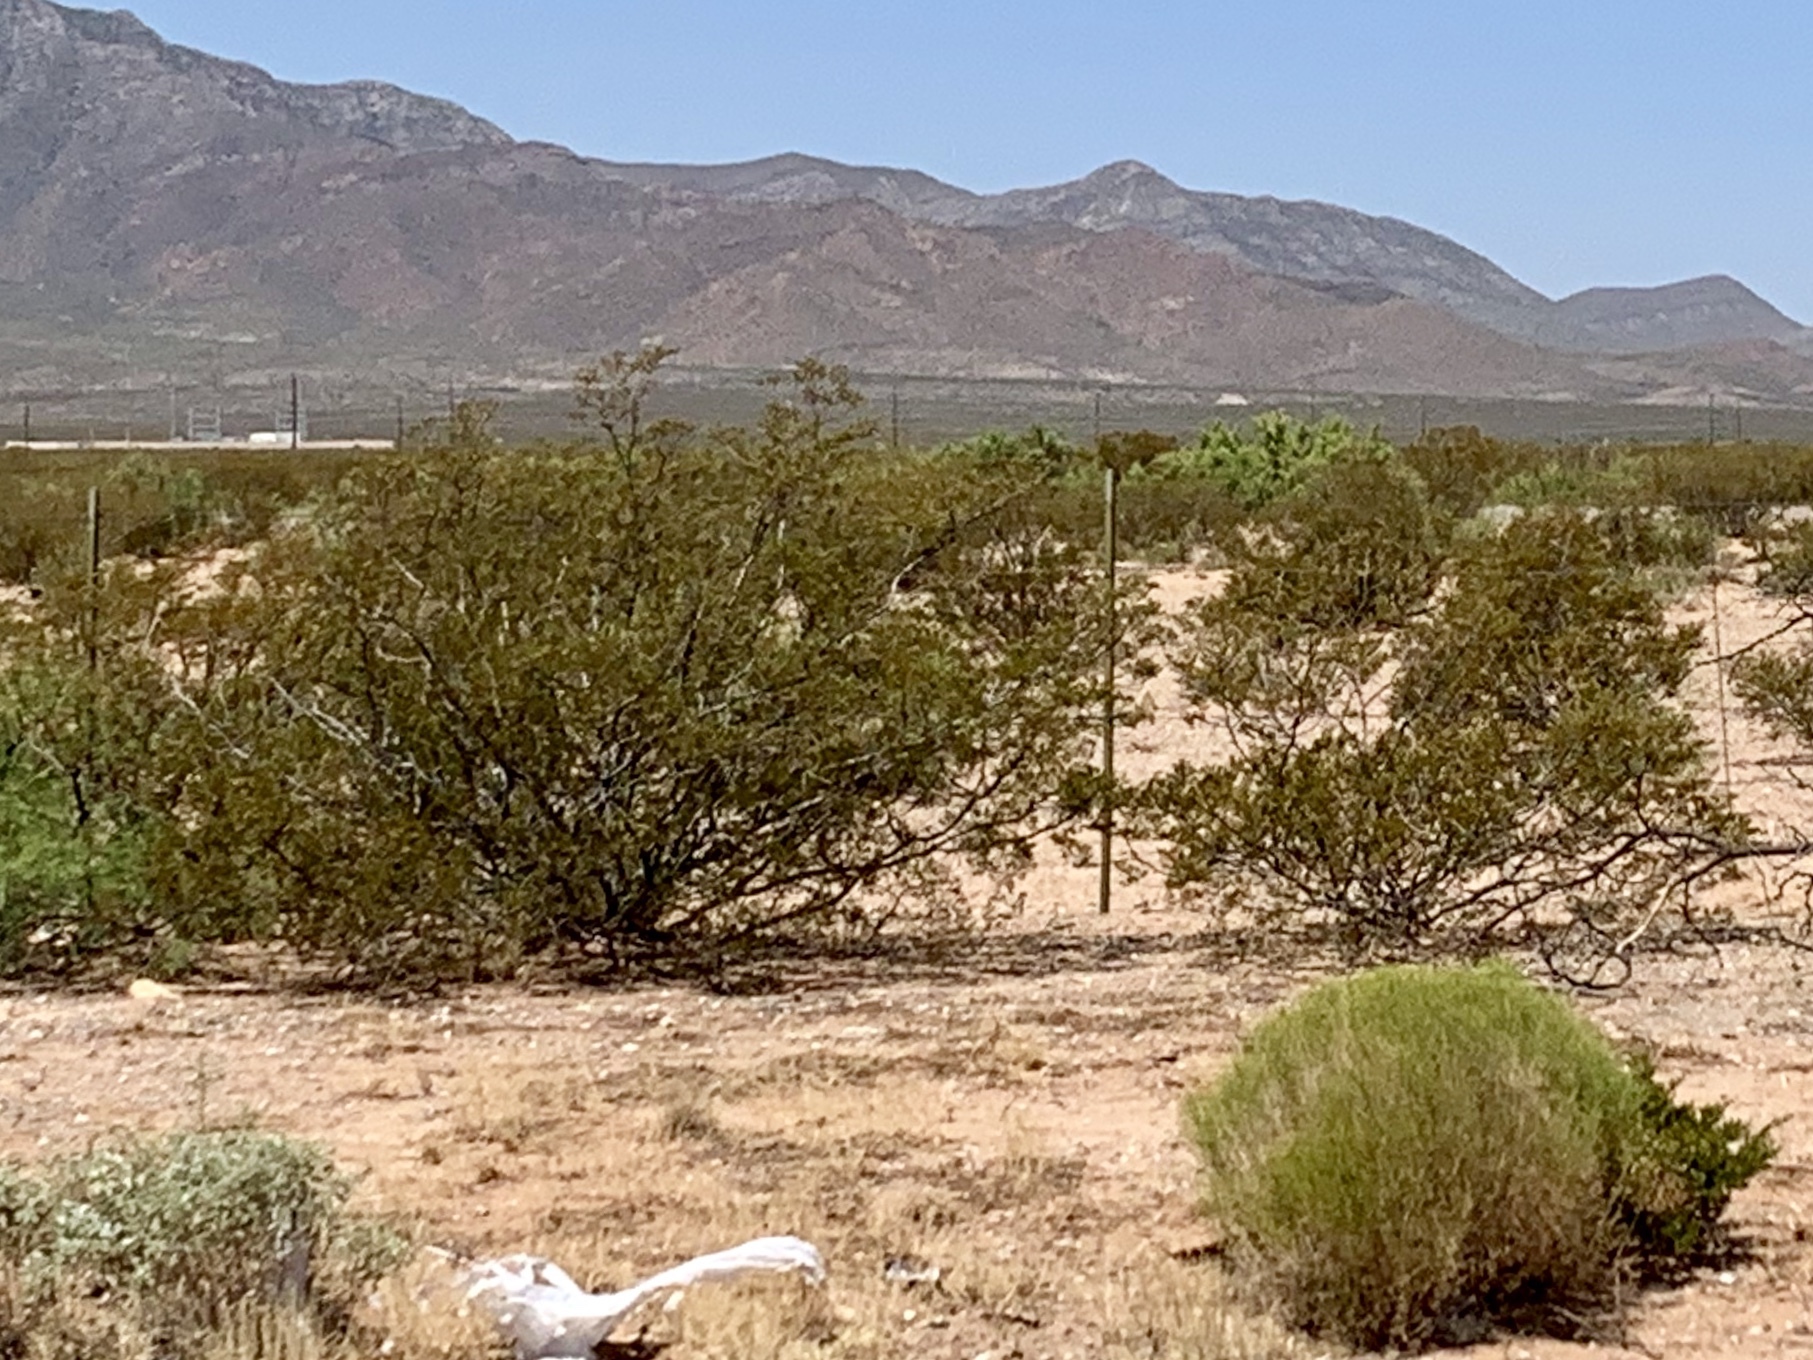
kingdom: Plantae
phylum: Tracheophyta
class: Magnoliopsida
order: Zygophyllales
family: Zygophyllaceae
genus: Larrea
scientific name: Larrea tridentata
